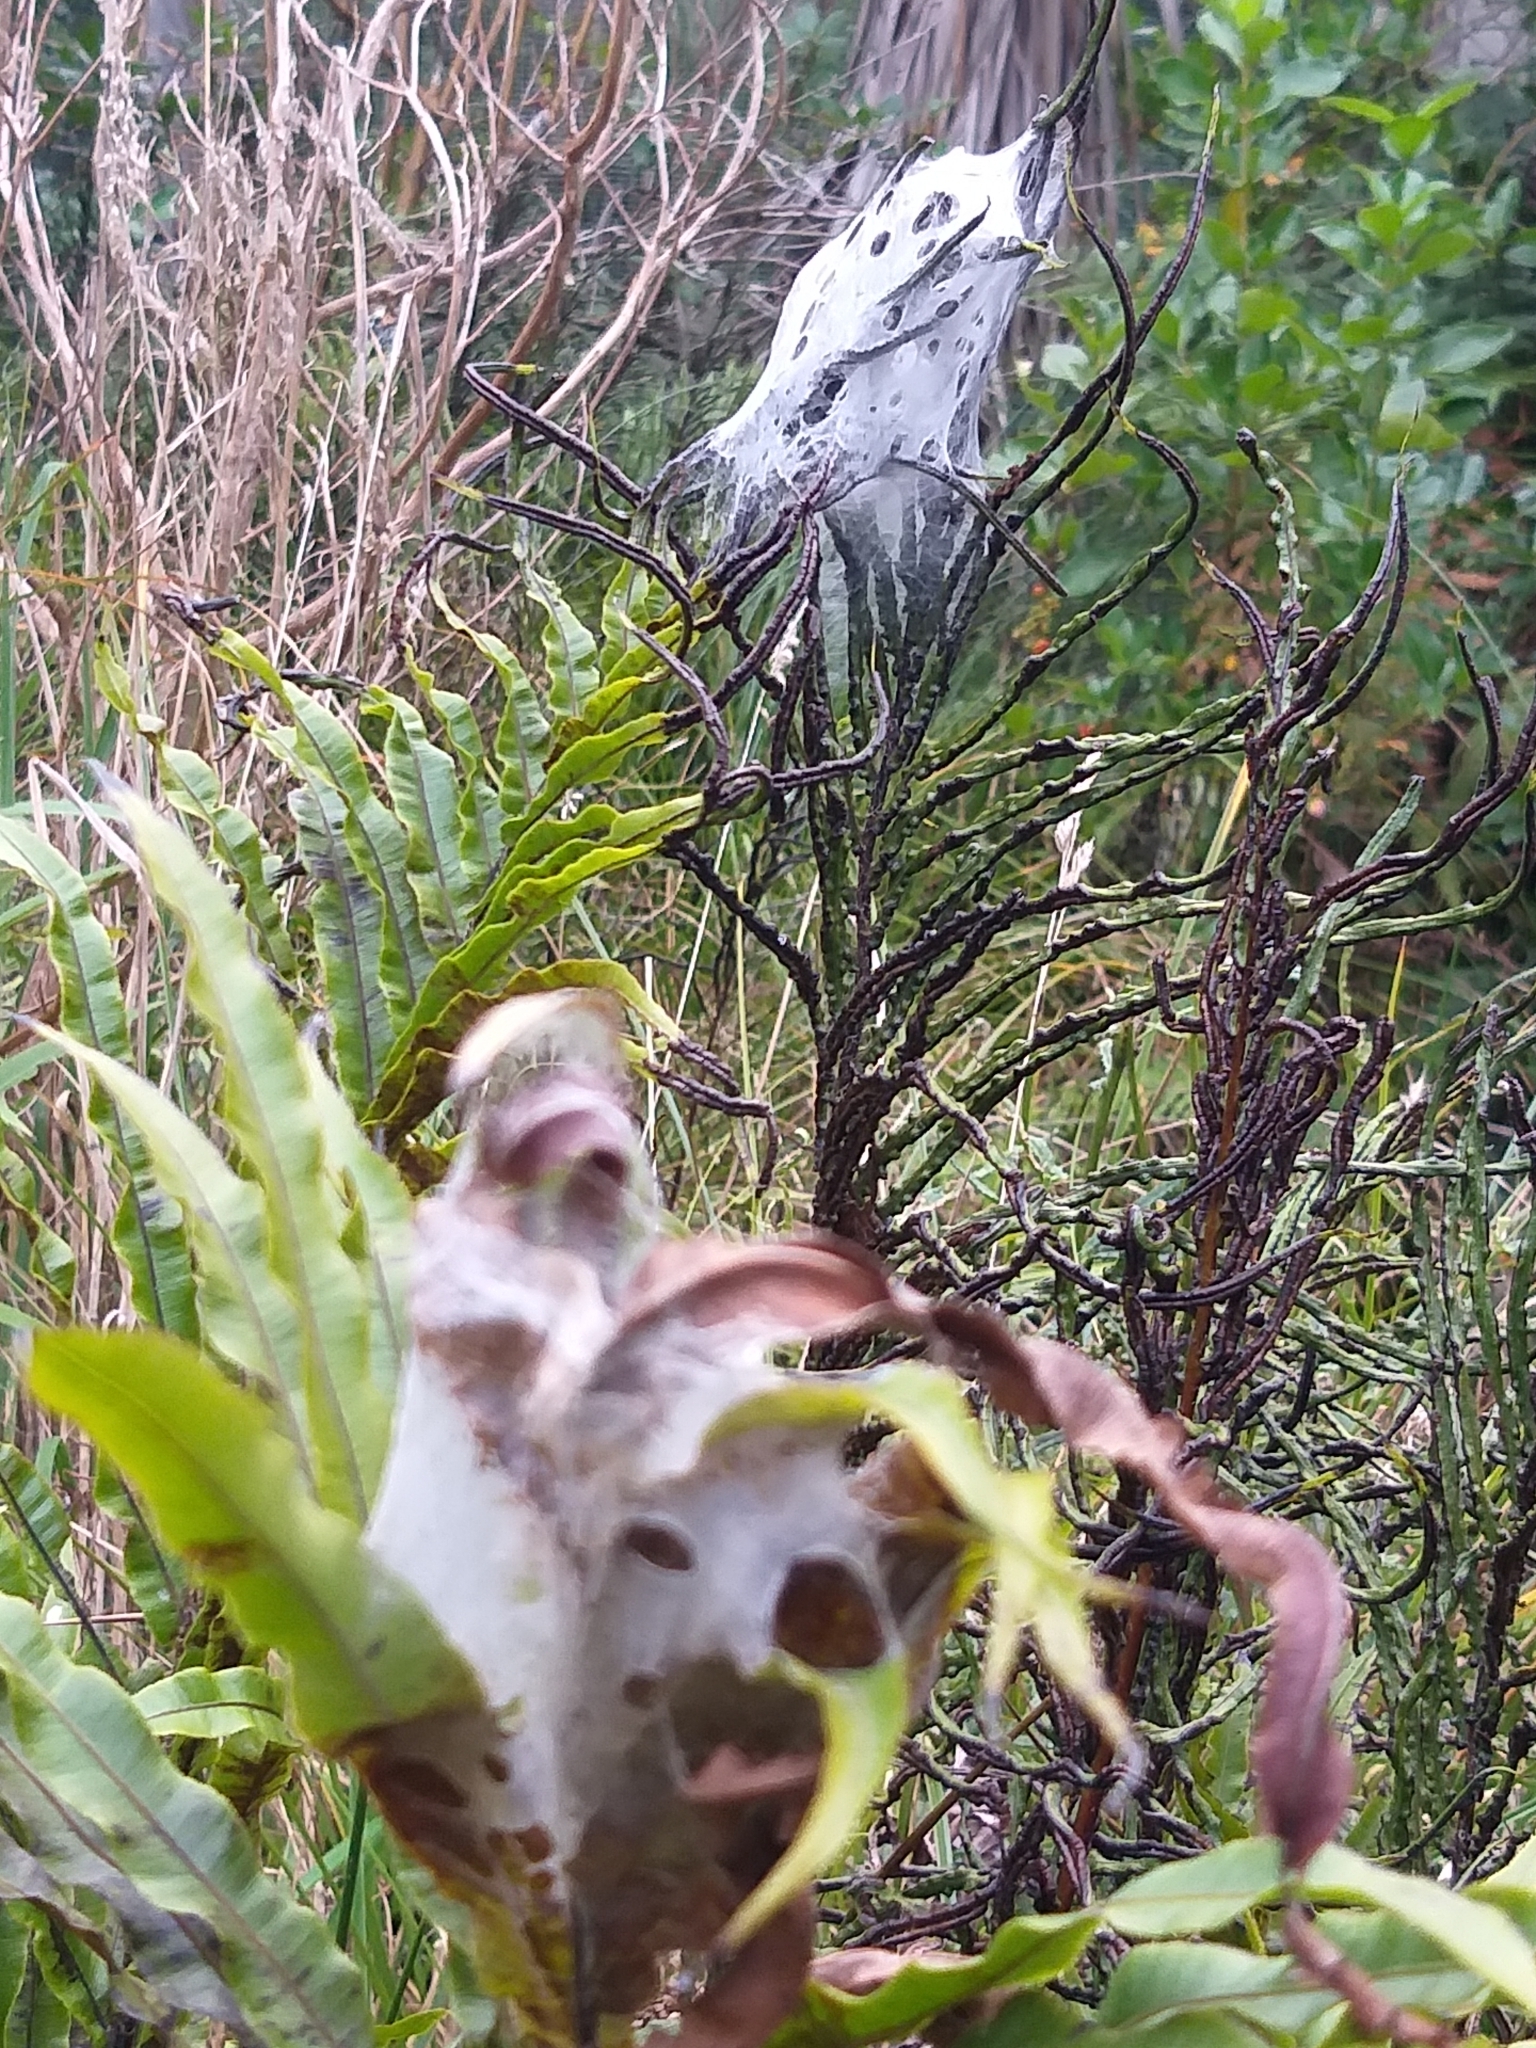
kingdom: Animalia
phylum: Arthropoda
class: Arachnida
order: Araneae
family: Pisauridae
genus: Dolomedes
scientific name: Dolomedes minor
